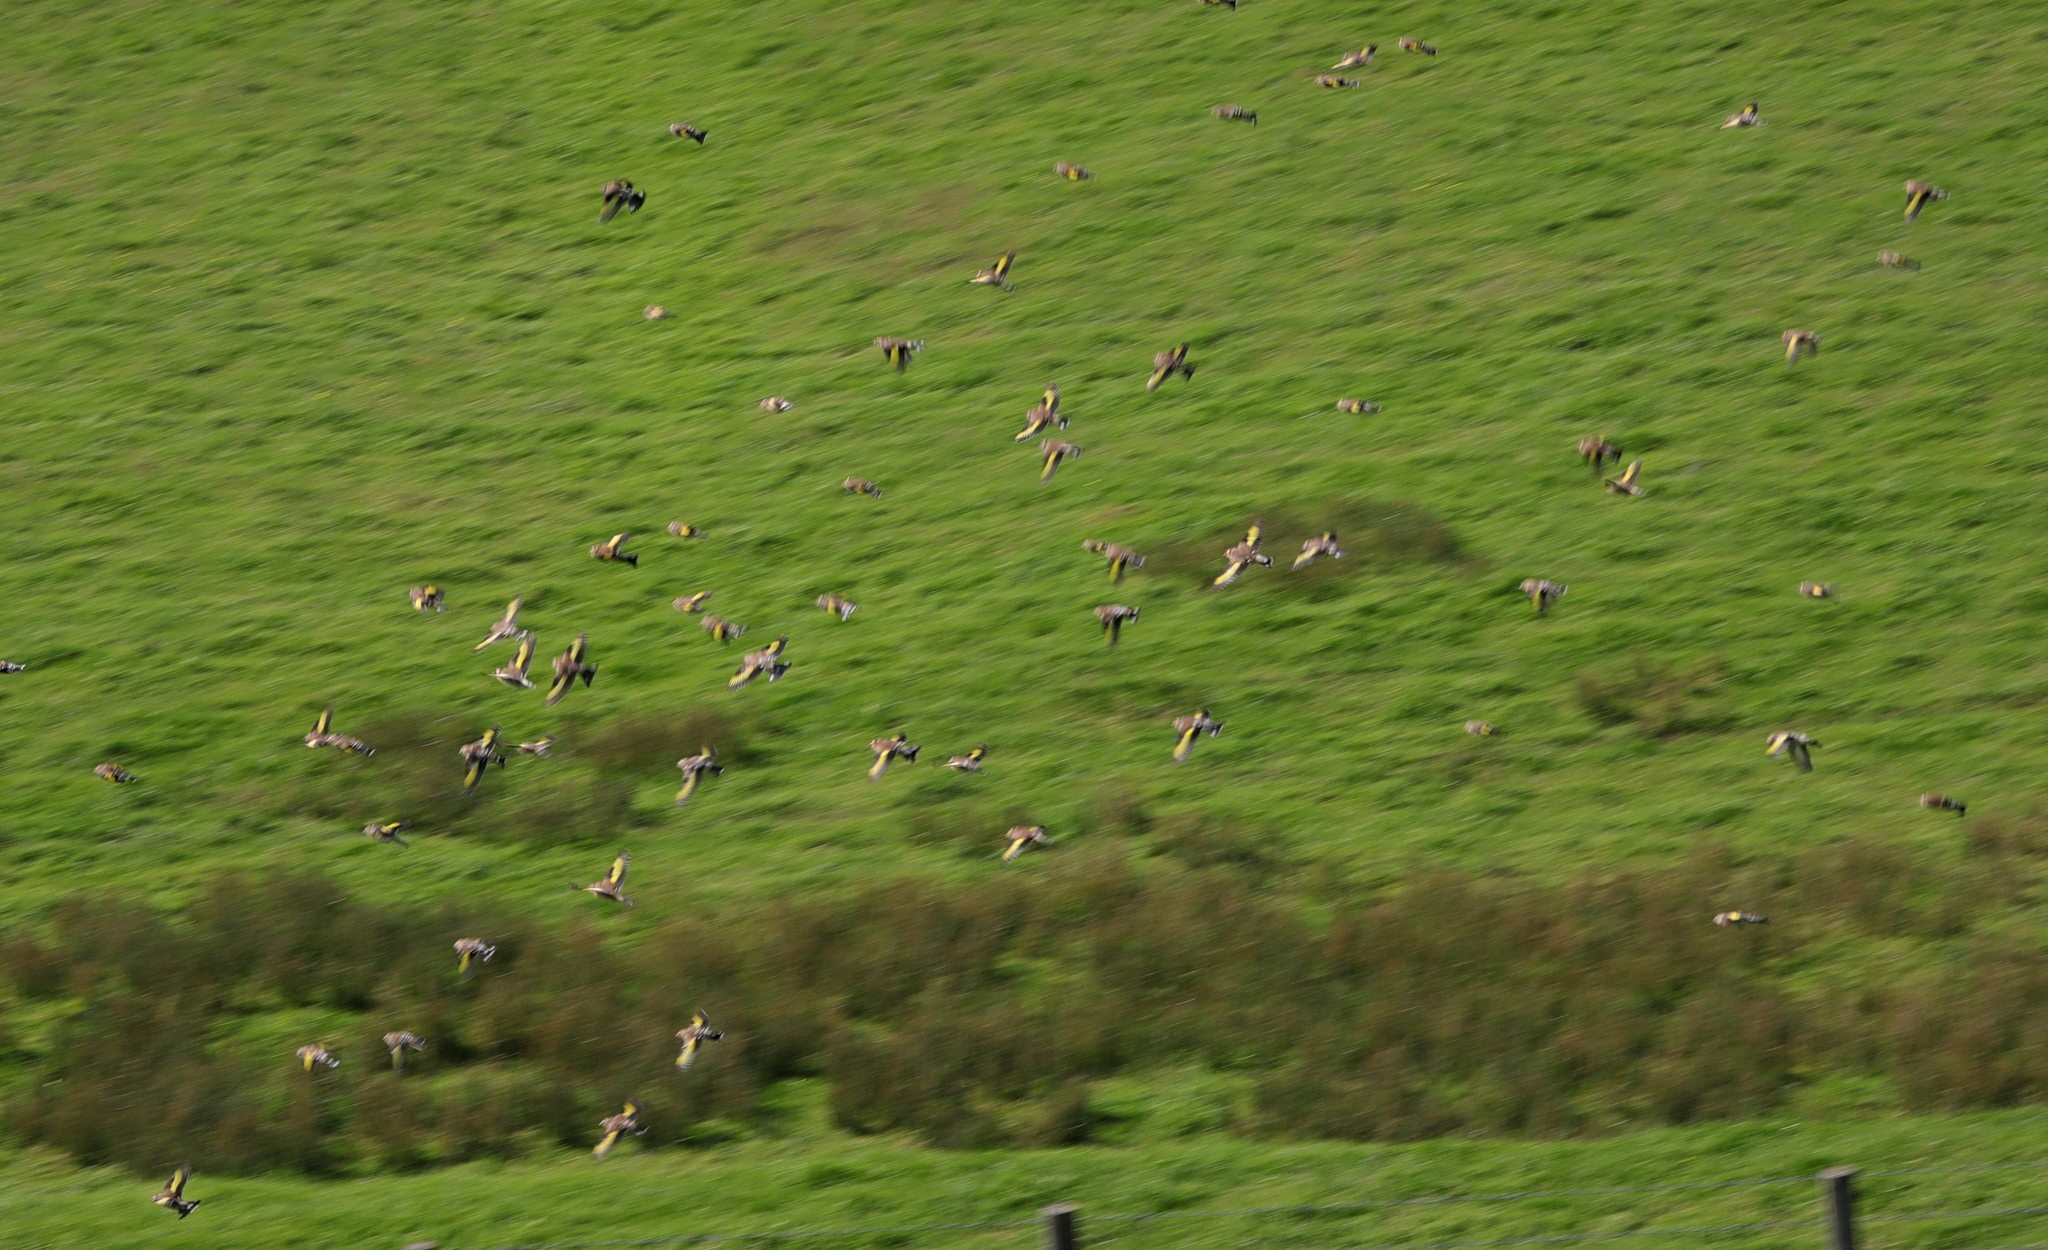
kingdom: Animalia
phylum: Chordata
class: Aves
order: Passeriformes
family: Fringillidae
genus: Carduelis
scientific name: Carduelis carduelis
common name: European goldfinch
